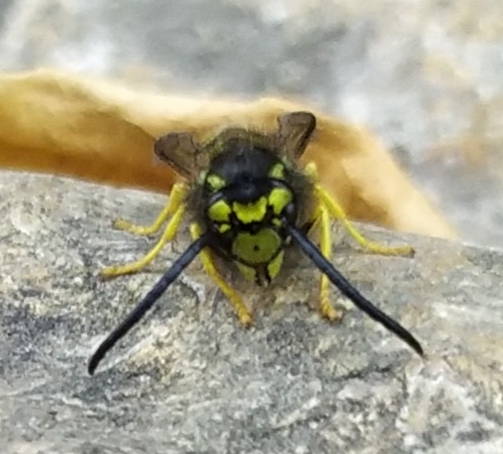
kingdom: Animalia
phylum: Arthropoda
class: Insecta
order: Hymenoptera
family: Vespidae
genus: Vespula
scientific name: Vespula germanica
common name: German wasp
